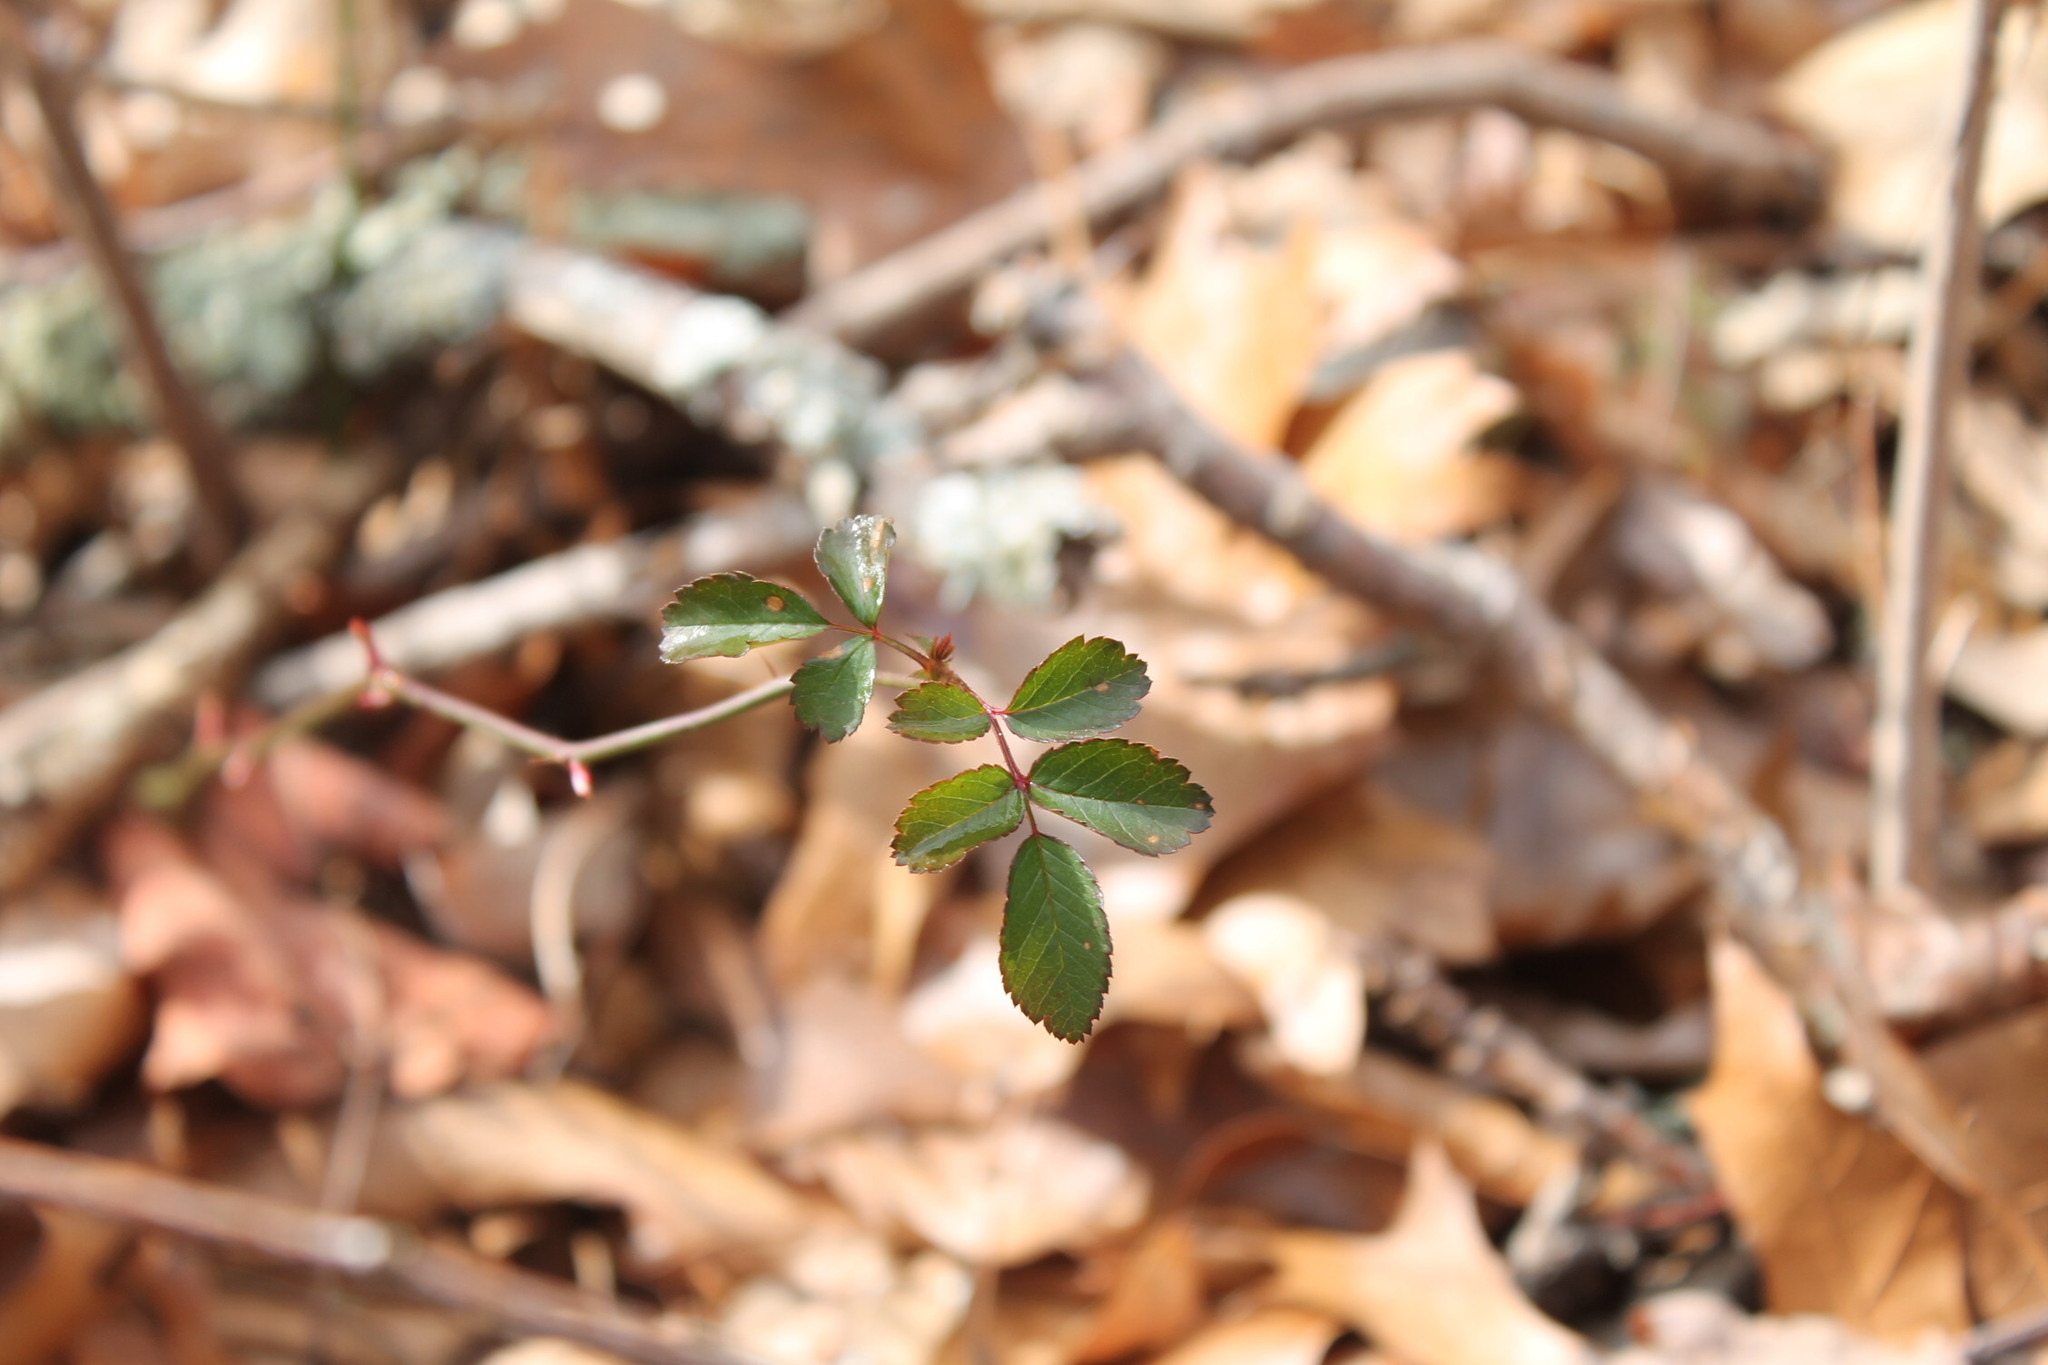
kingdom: Plantae
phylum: Tracheophyta
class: Magnoliopsida
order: Rosales
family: Rosaceae
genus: Rosa
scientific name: Rosa multiflora
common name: Multiflora rose
